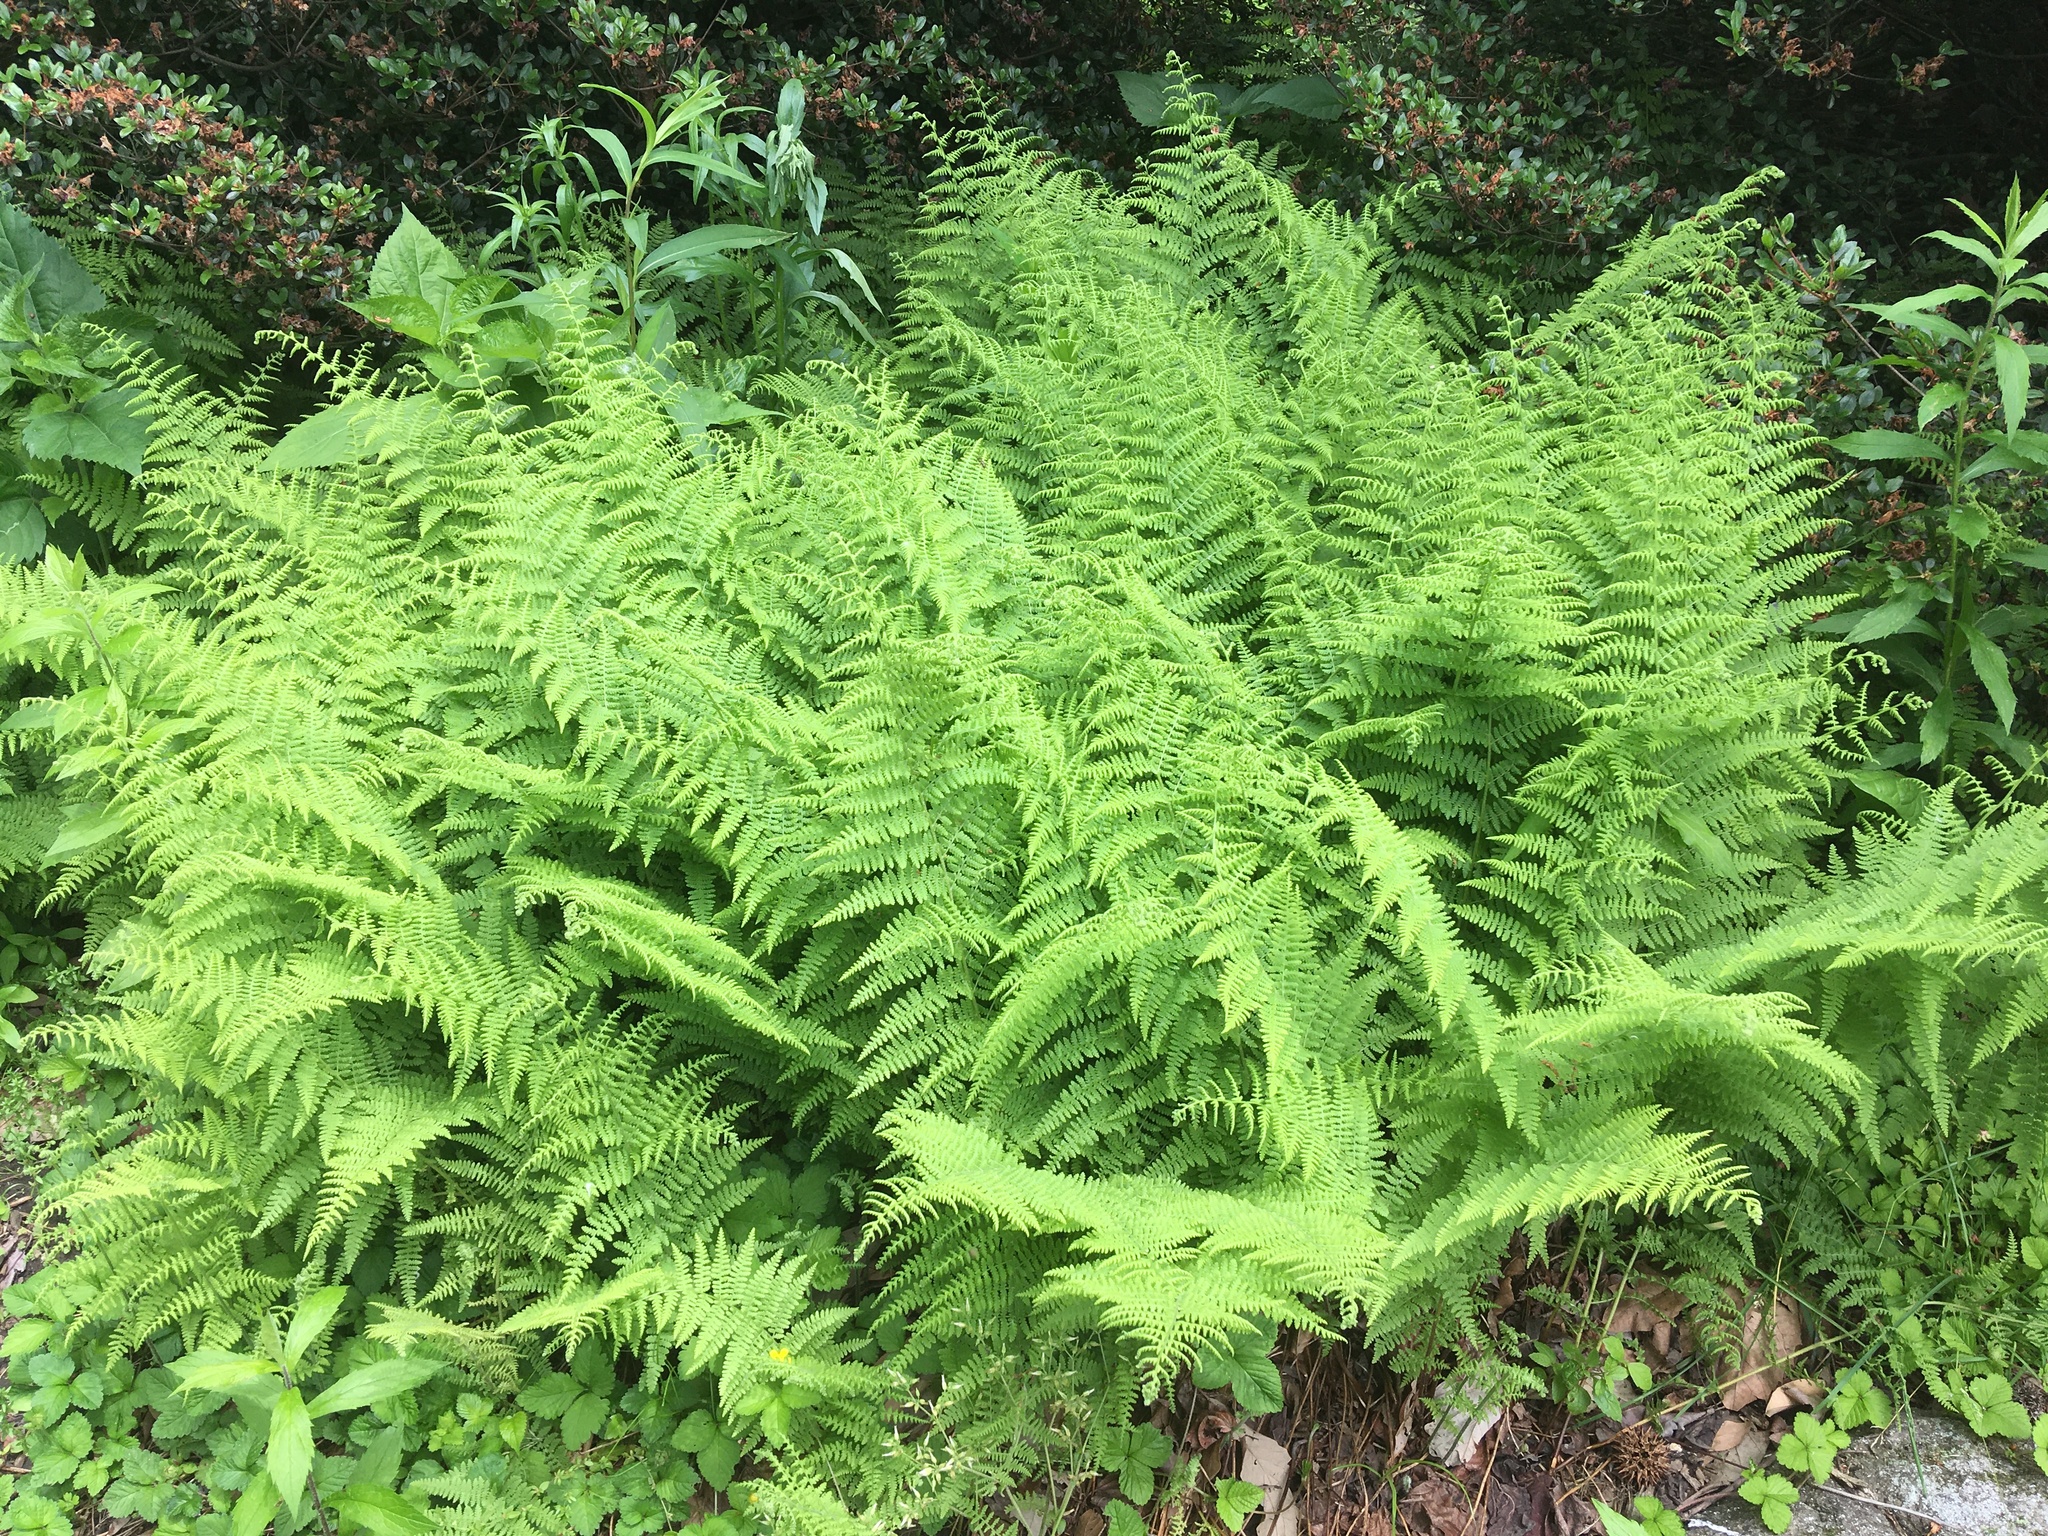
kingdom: Plantae
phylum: Tracheophyta
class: Polypodiopsida
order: Polypodiales
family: Dennstaedtiaceae
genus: Sitobolium
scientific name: Sitobolium punctilobum
